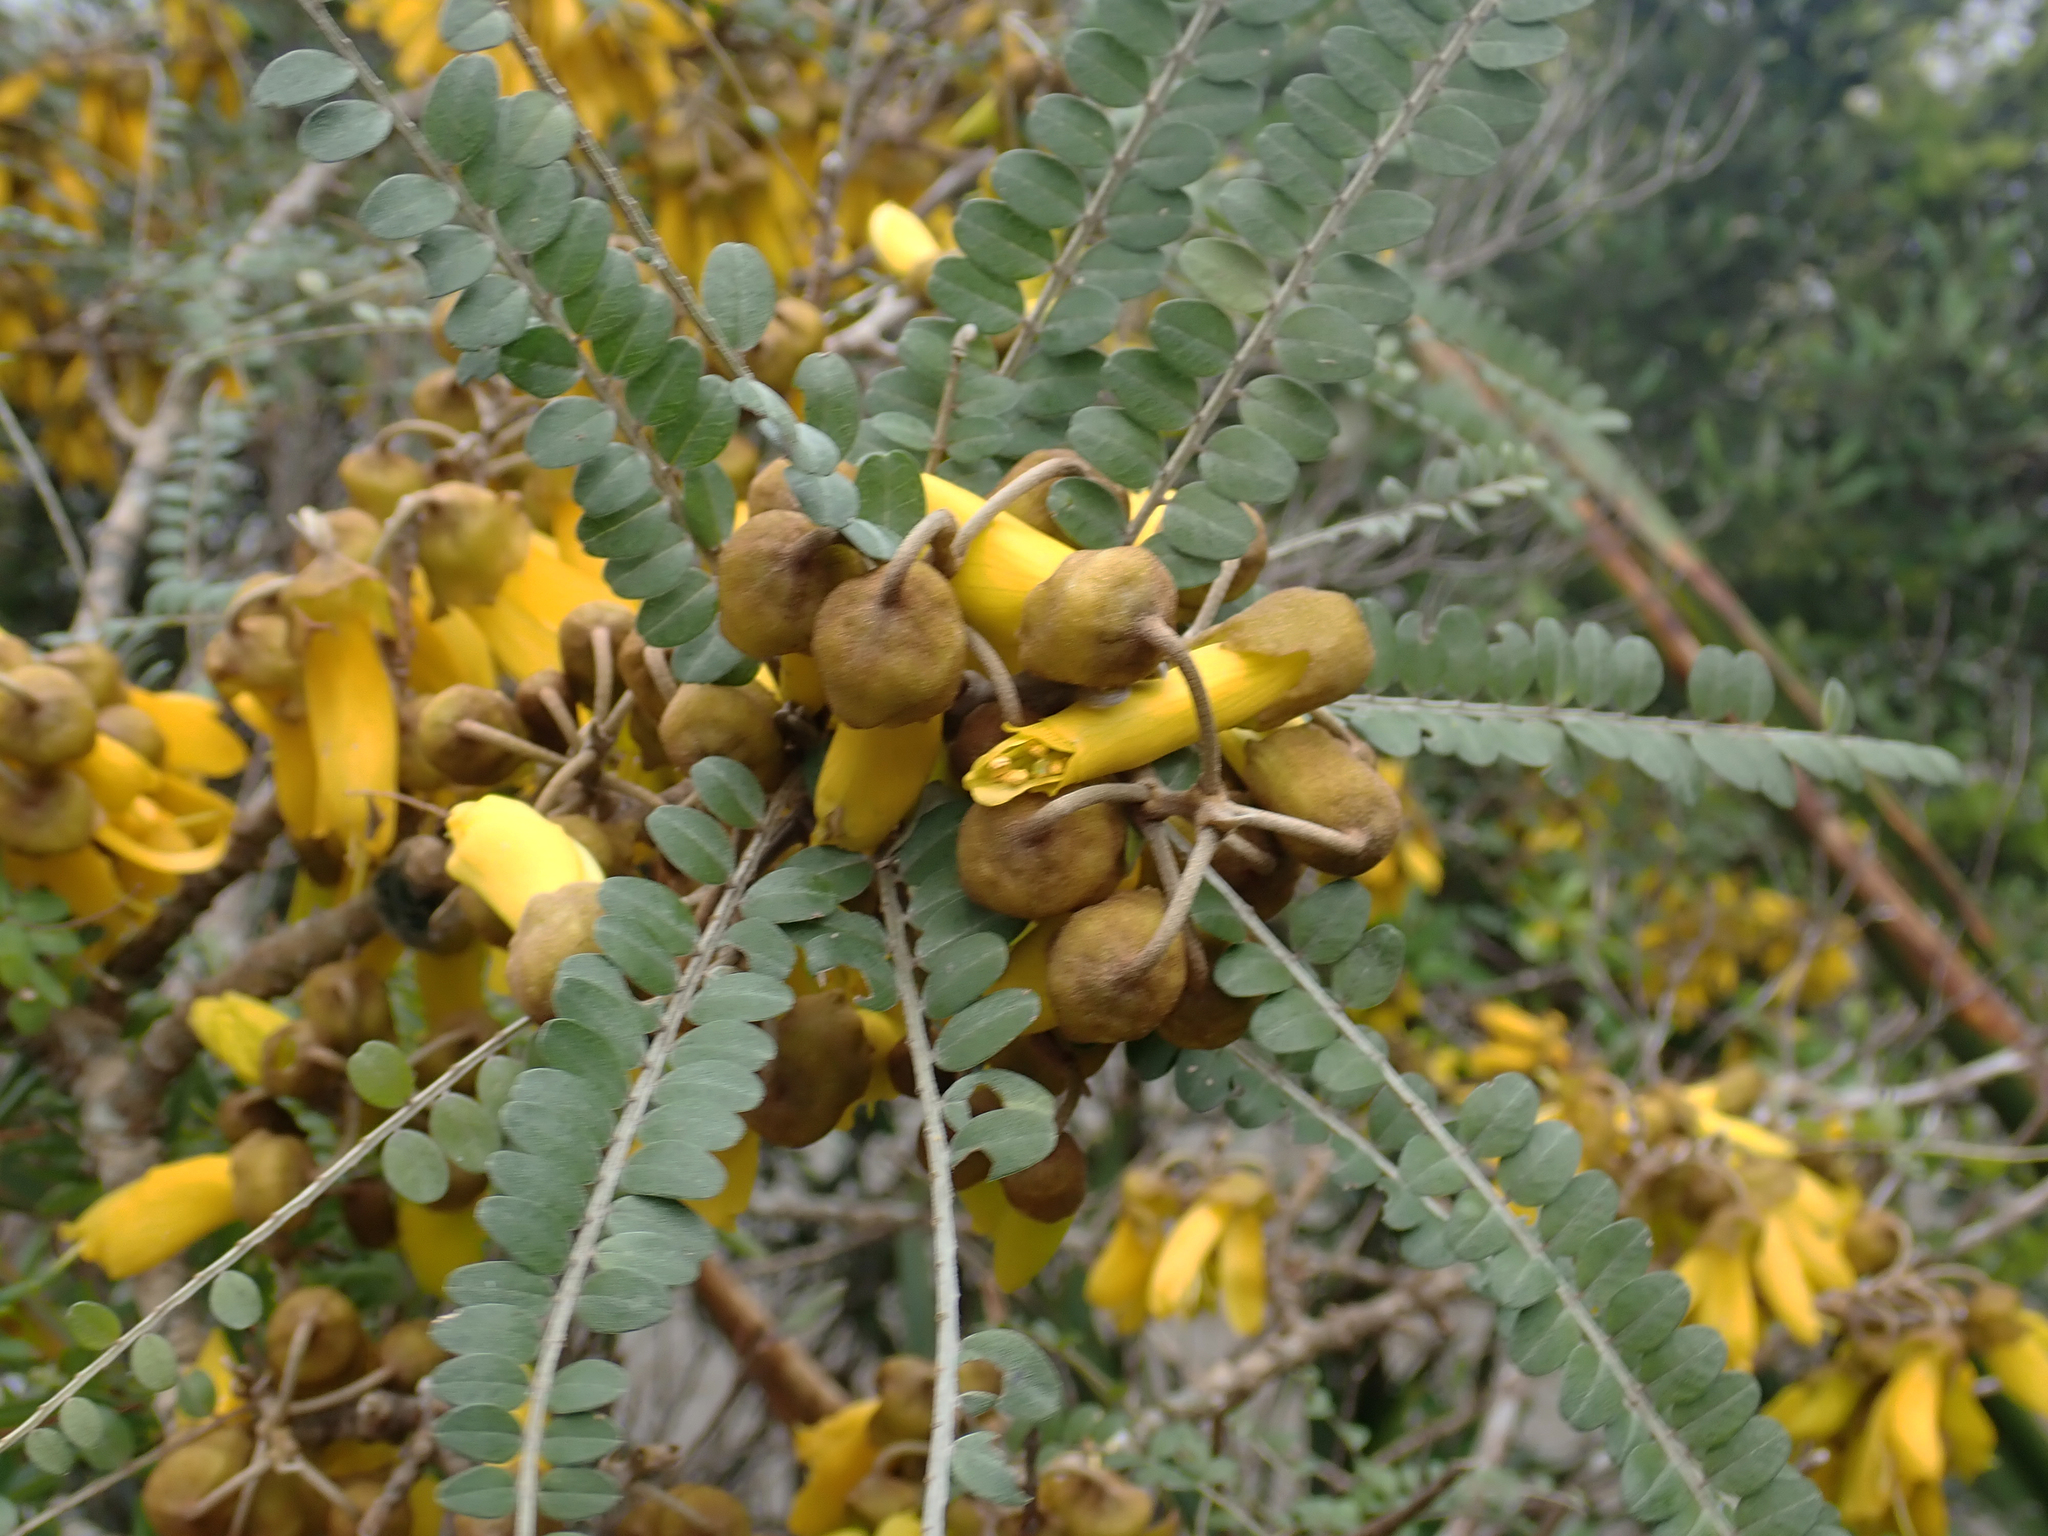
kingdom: Plantae
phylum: Tracheophyta
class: Magnoliopsida
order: Fabales
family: Fabaceae
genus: Sophora
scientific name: Sophora chathamica
